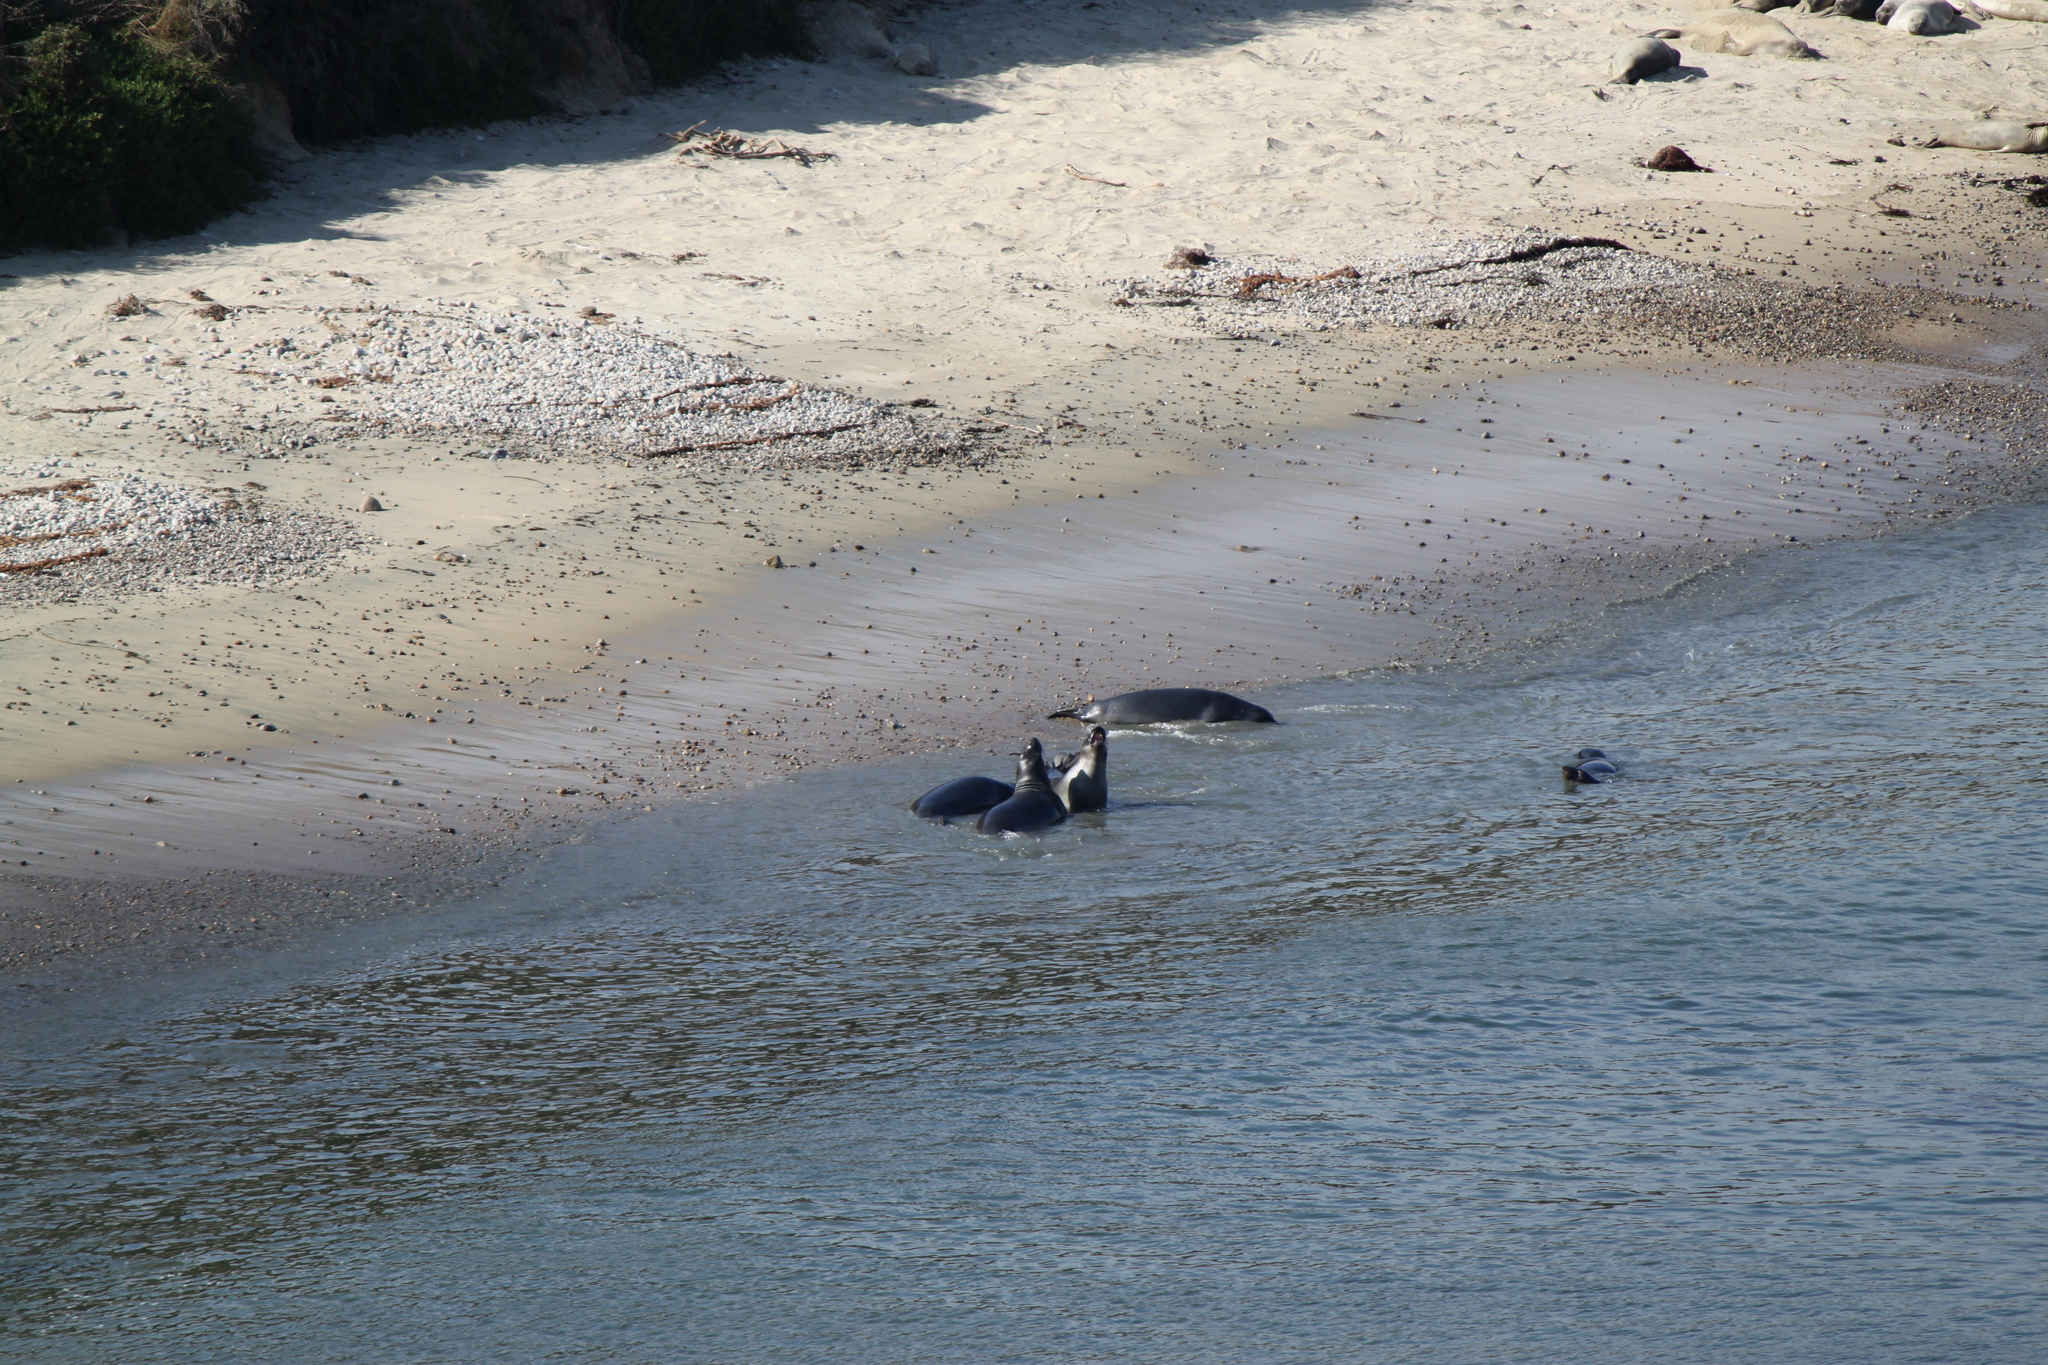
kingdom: Animalia
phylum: Chordata
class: Mammalia
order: Carnivora
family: Phocidae
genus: Mirounga
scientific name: Mirounga angustirostris
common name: Northern elephant seal
